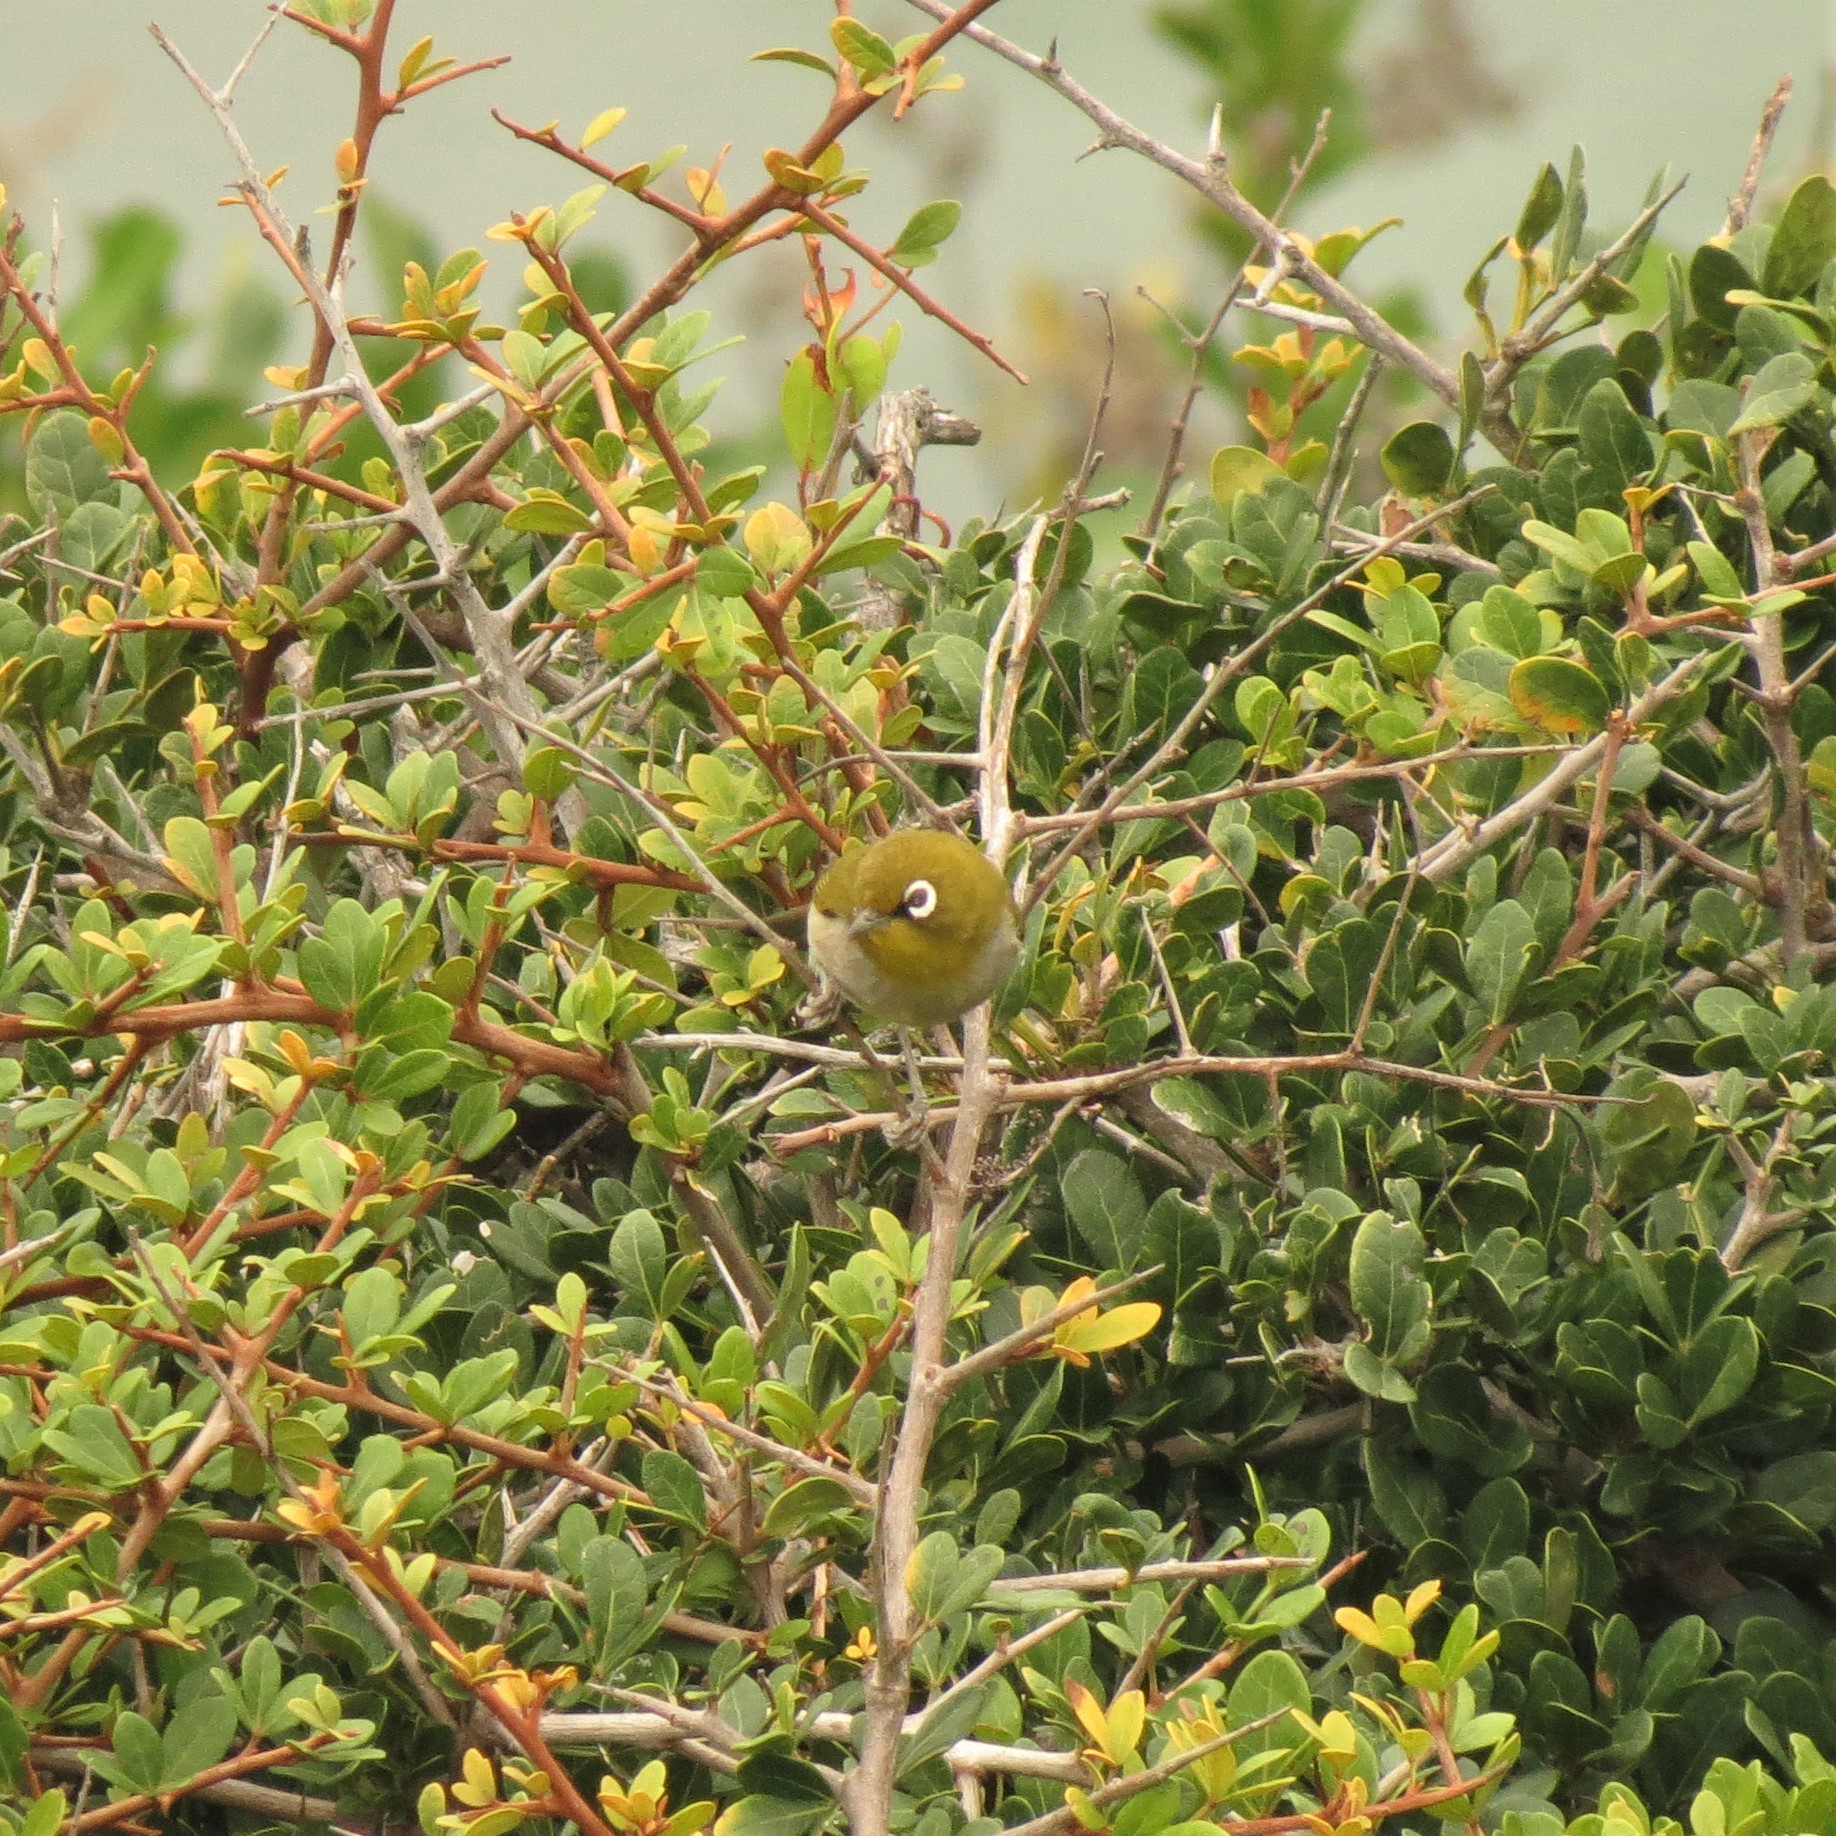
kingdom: Animalia
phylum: Chordata
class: Aves
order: Passeriformes
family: Zosteropidae
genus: Zosterops
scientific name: Zosterops virens
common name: Cape white-eye
